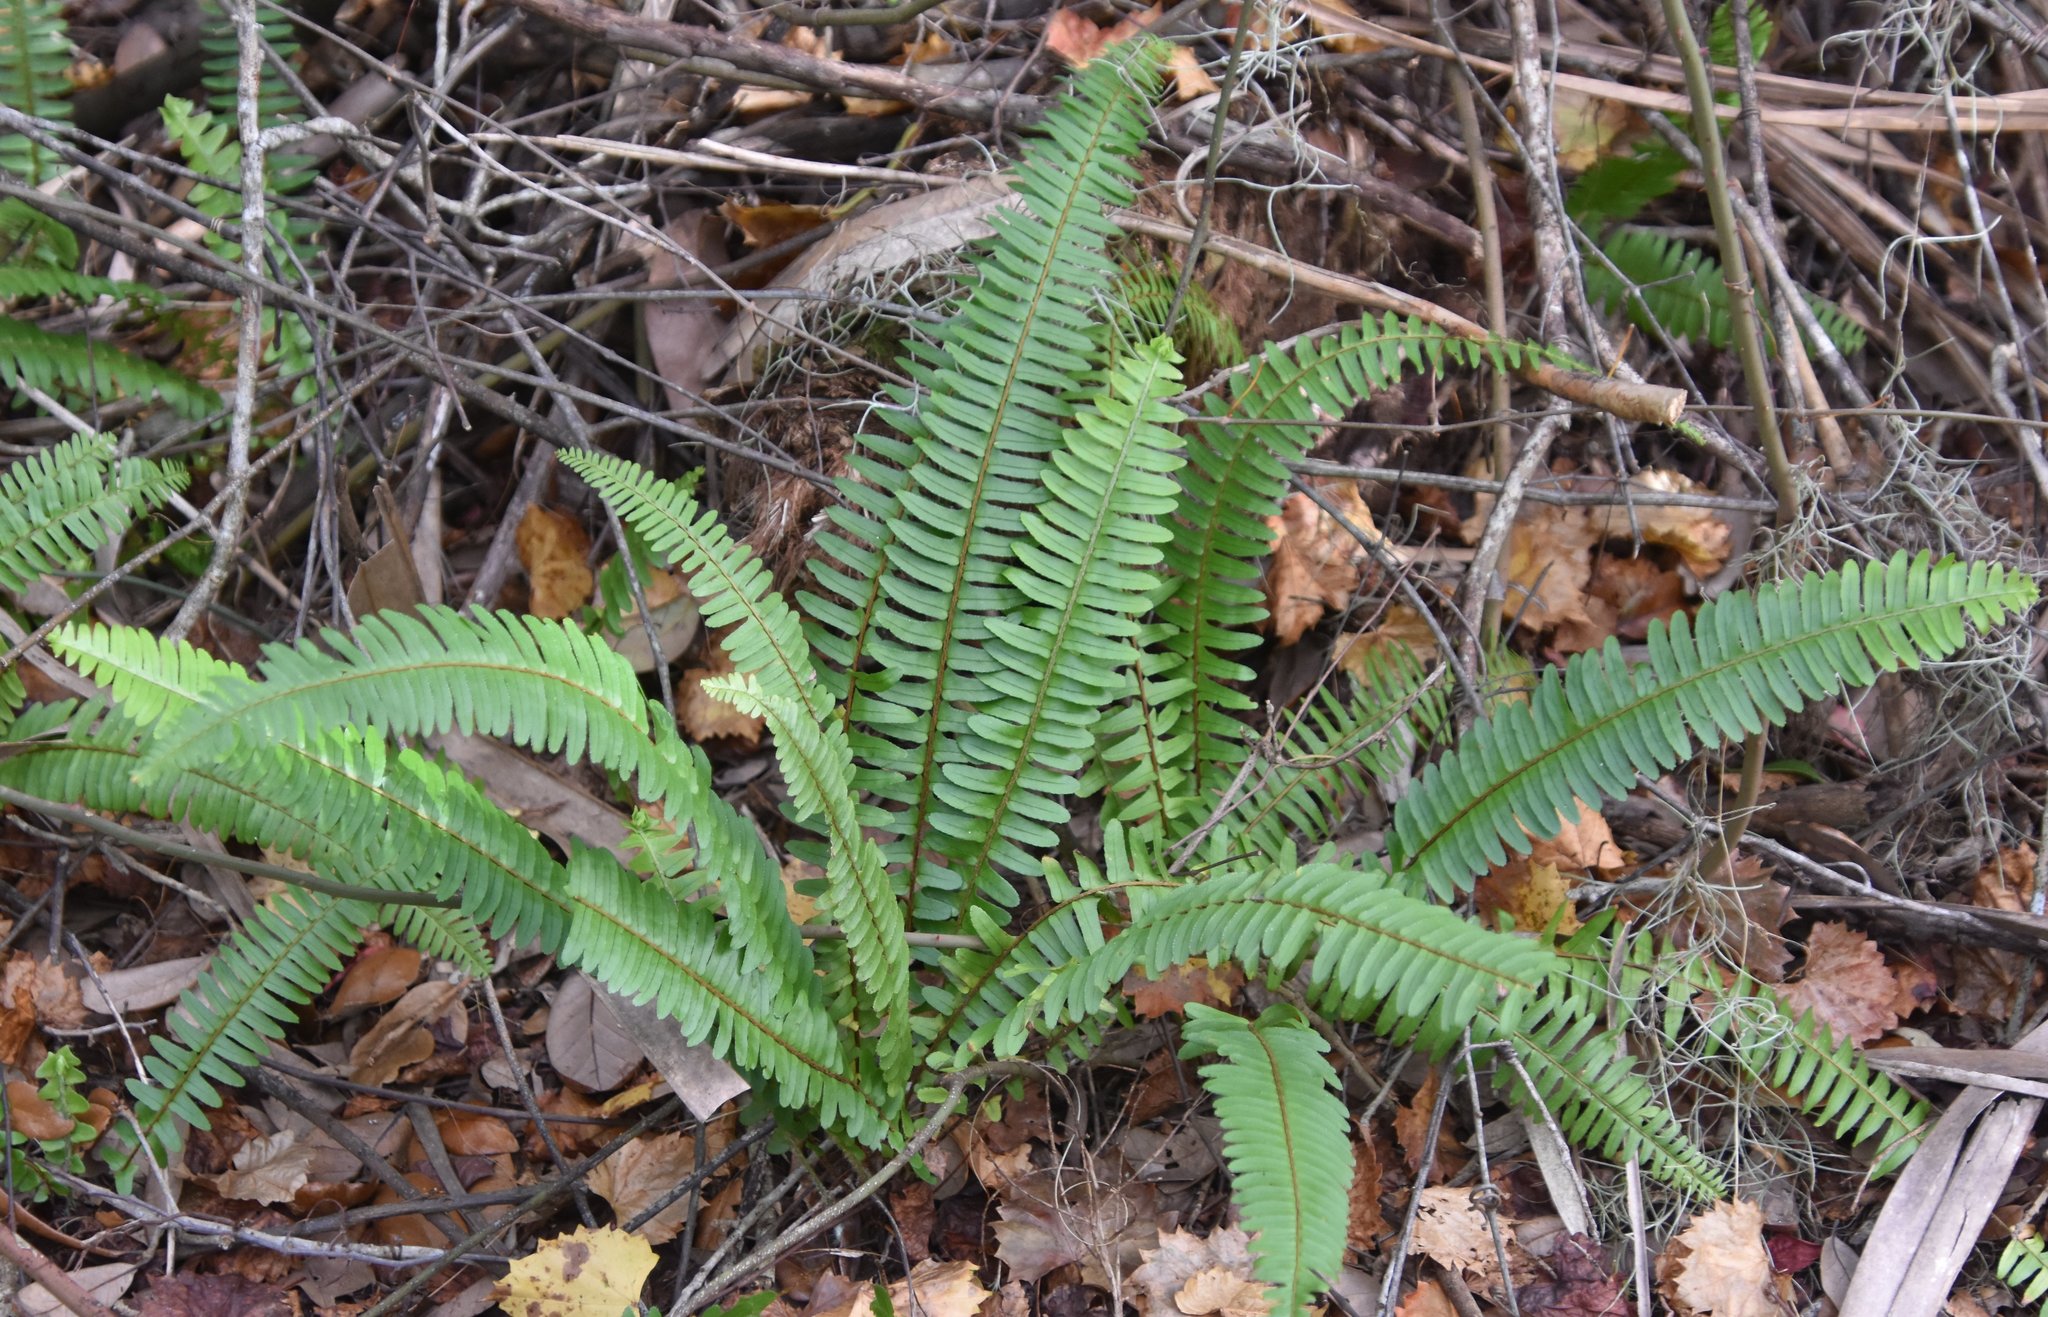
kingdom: Plantae
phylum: Tracheophyta
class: Polypodiopsida
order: Polypodiales
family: Nephrolepidaceae
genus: Nephrolepis
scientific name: Nephrolepis cordifolia
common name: Narrow swordfern
